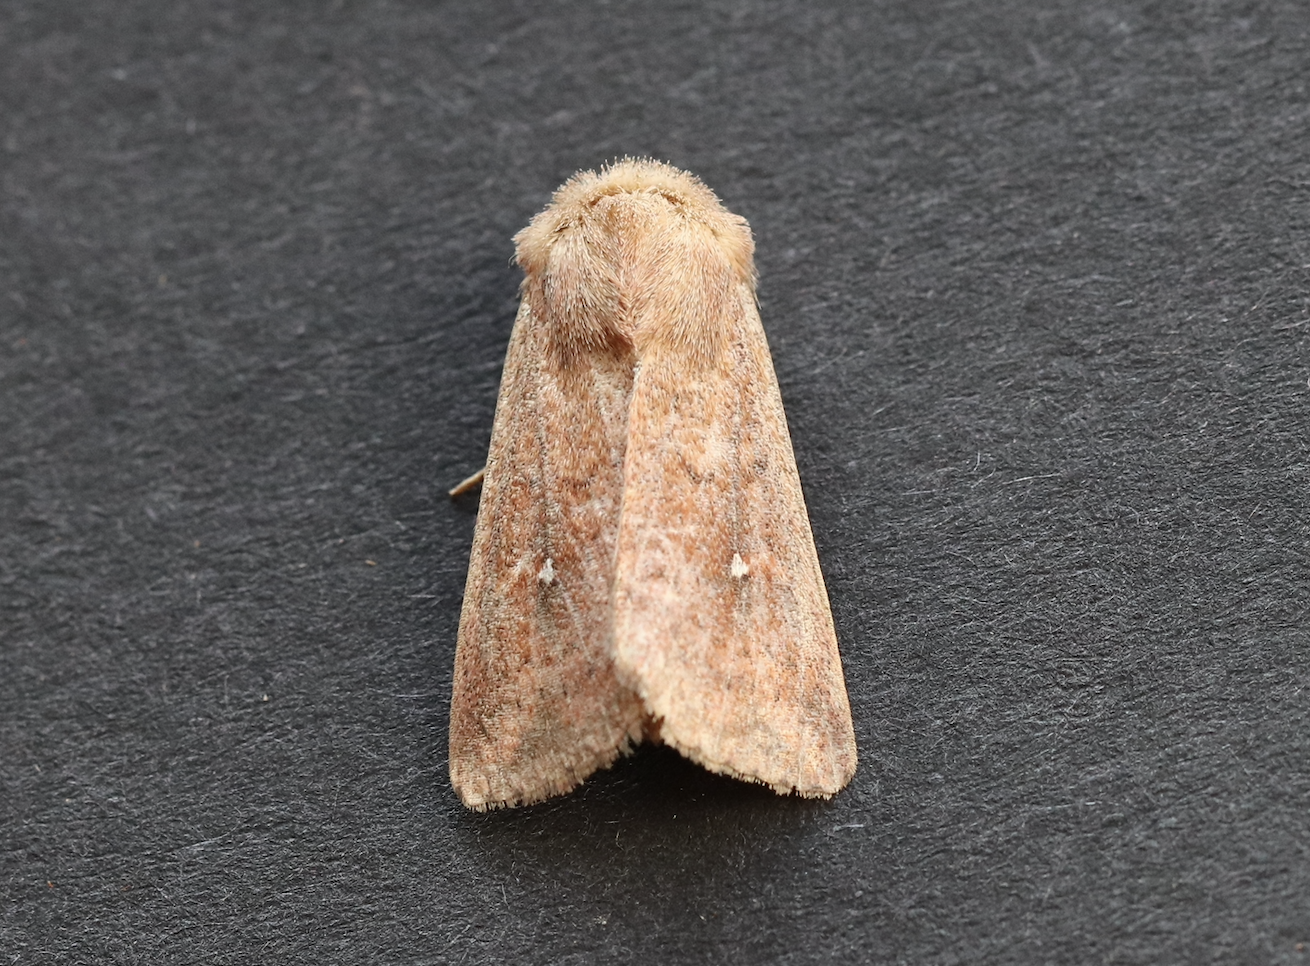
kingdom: Animalia
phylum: Arthropoda
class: Insecta
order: Lepidoptera
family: Noctuidae
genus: Mythimna
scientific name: Mythimna albipuncta
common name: White-point
